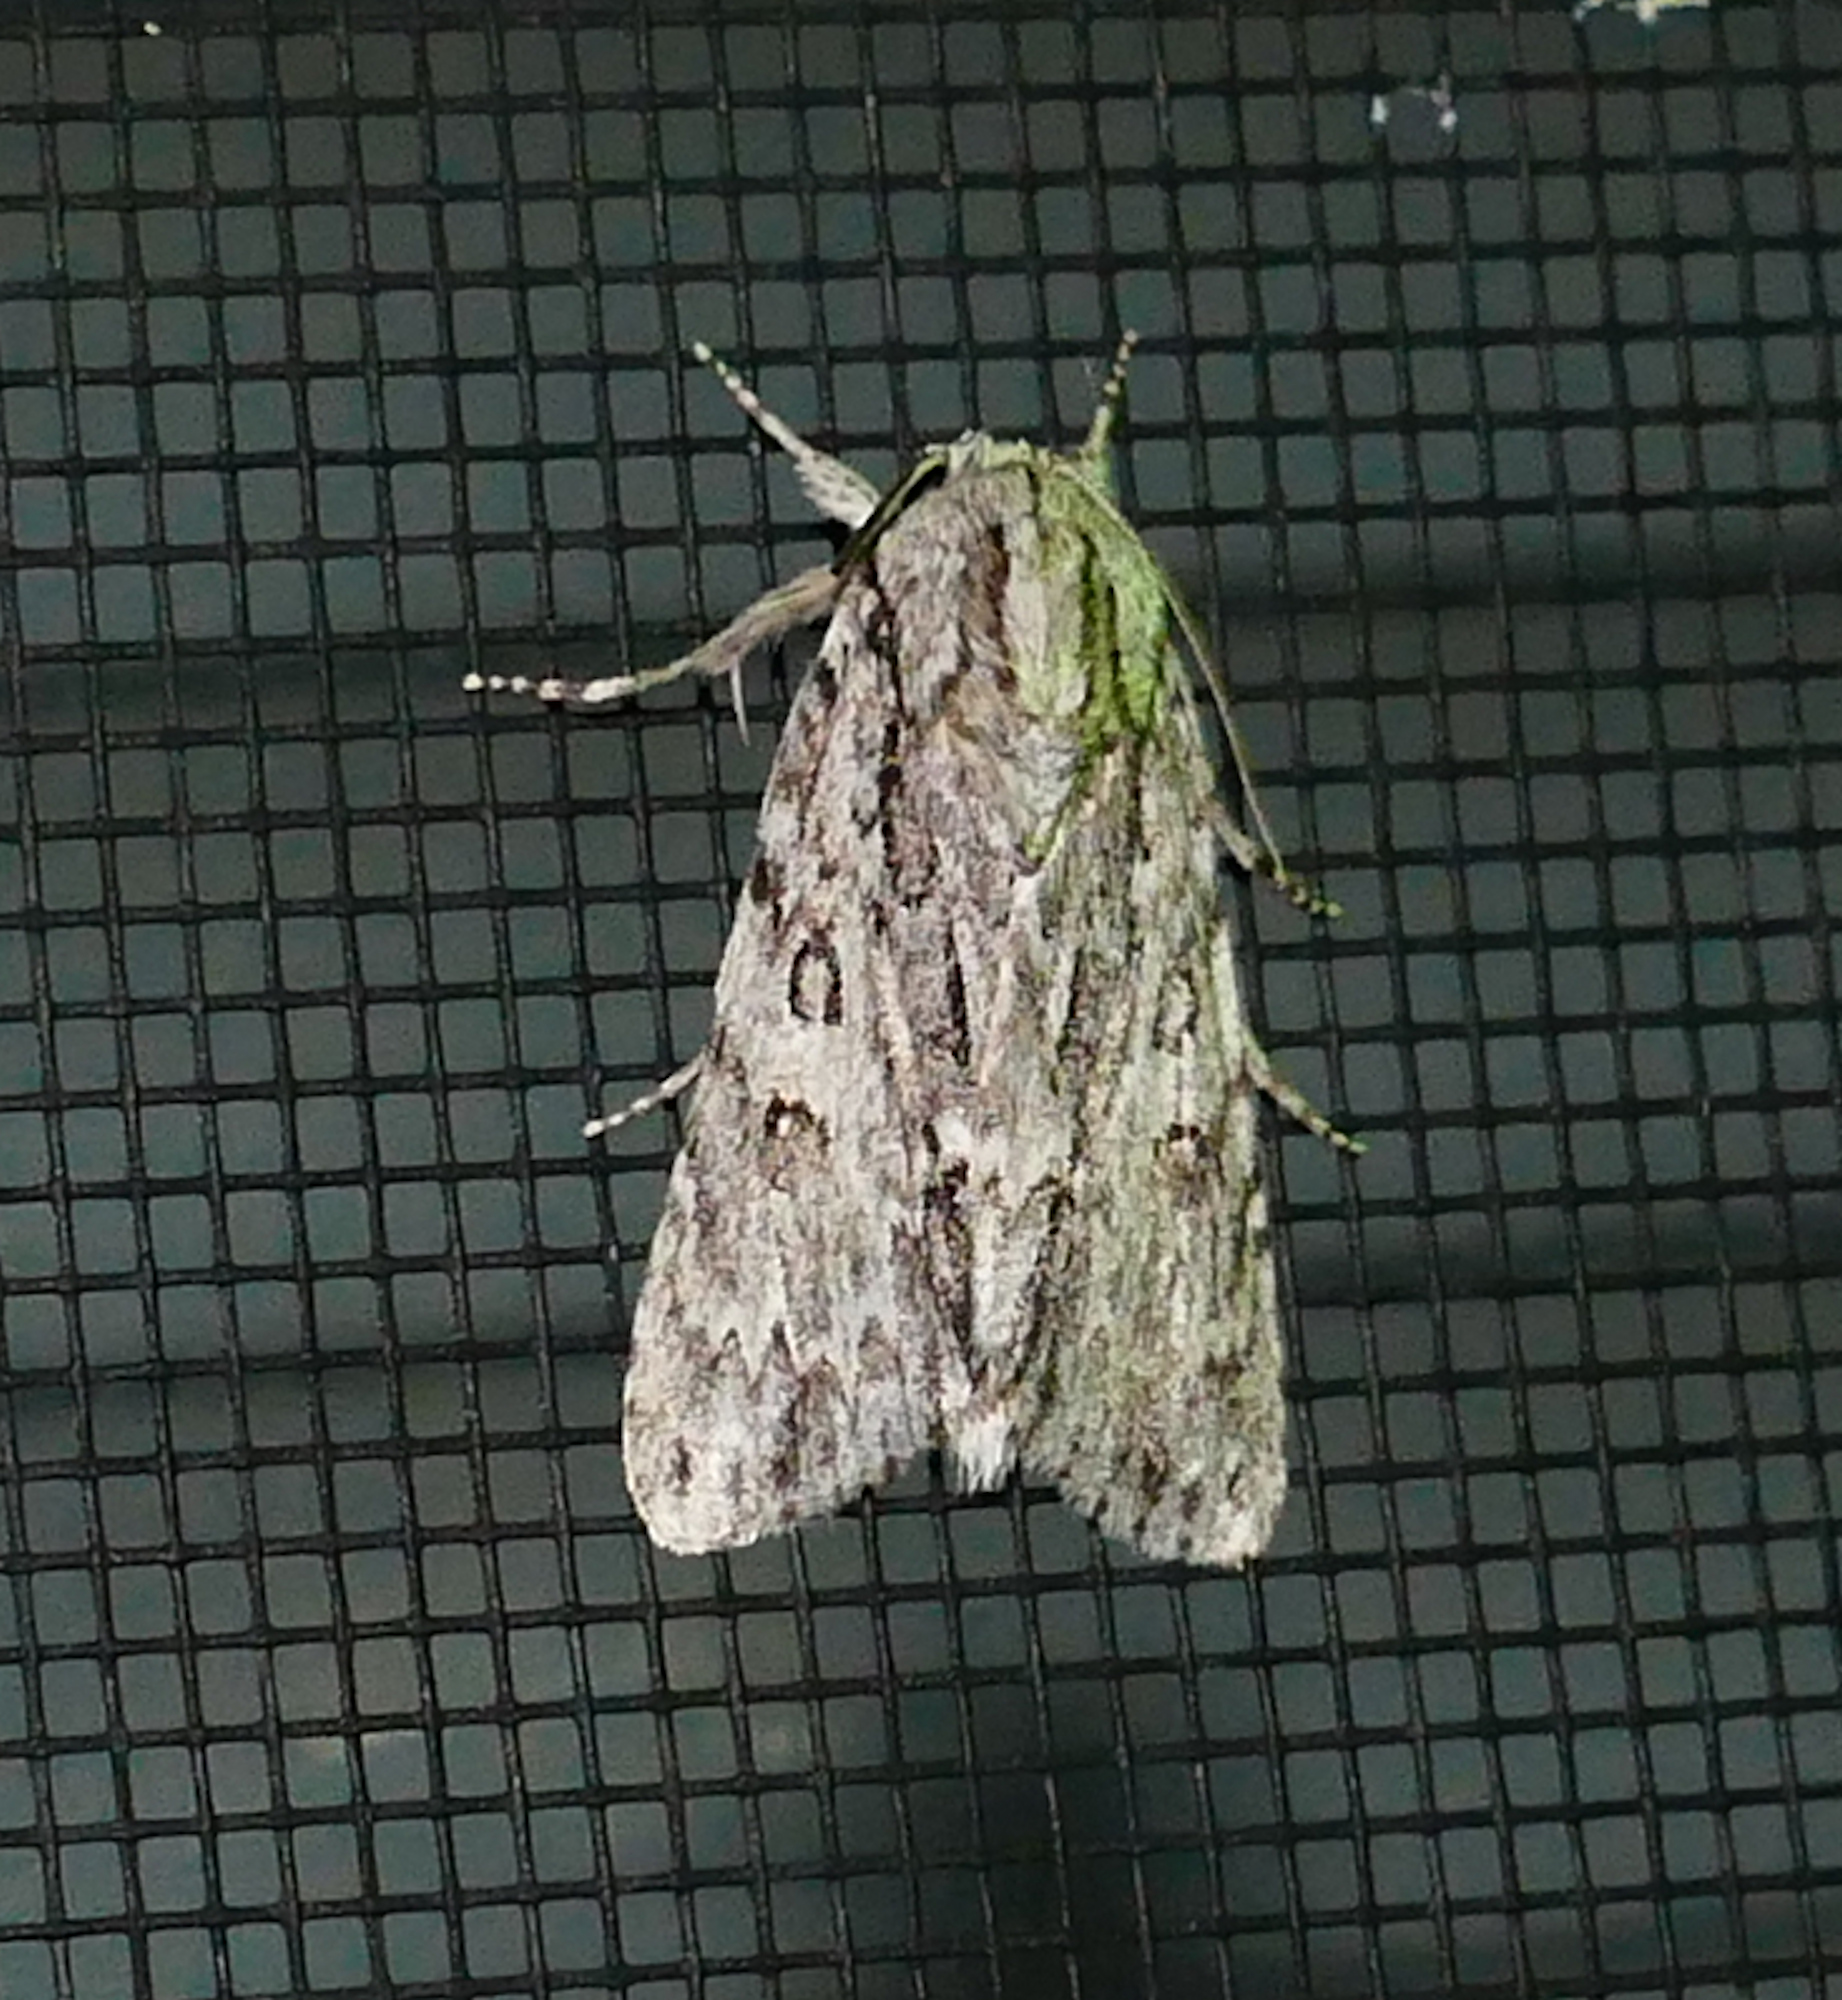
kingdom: Animalia
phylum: Arthropoda
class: Insecta
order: Lepidoptera
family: Noctuidae
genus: Acronicta
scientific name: Acronicta rubricoma
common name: Hackberry dagger
